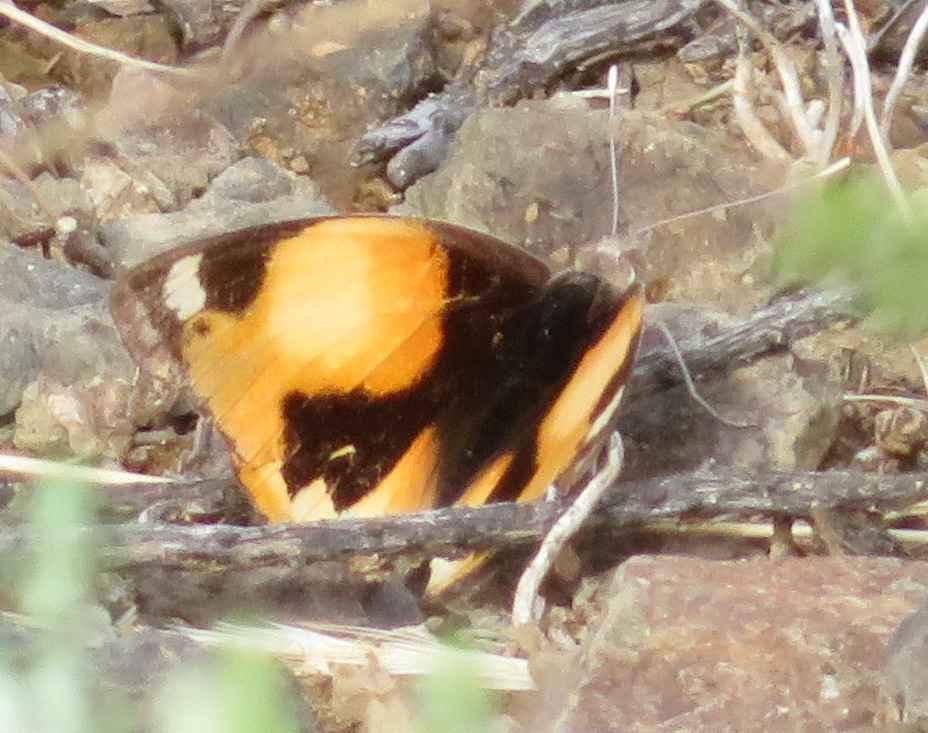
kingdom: Animalia
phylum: Arthropoda
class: Insecta
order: Lepidoptera
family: Nymphalidae
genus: Junonia
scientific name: Junonia hierta
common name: Yellow pansy
